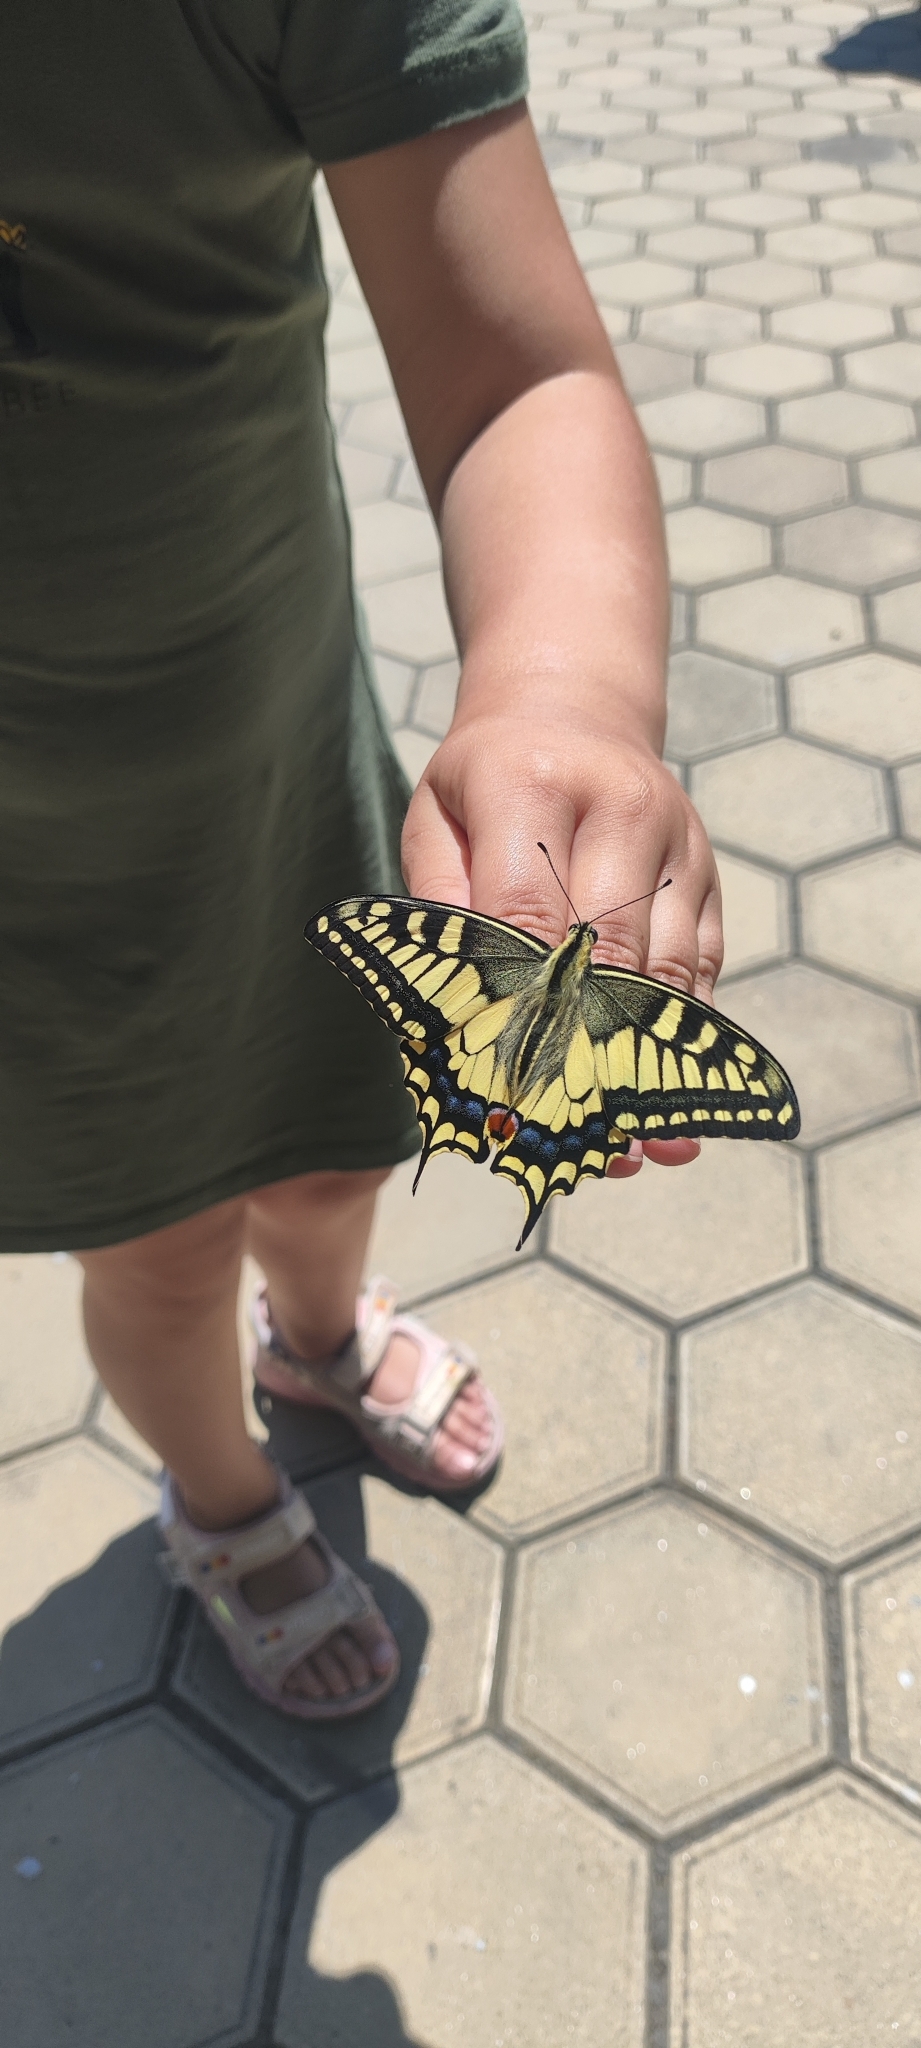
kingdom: Animalia
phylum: Arthropoda
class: Insecta
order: Lepidoptera
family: Papilionidae
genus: Papilio
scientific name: Papilio machaon
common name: Swallowtail
